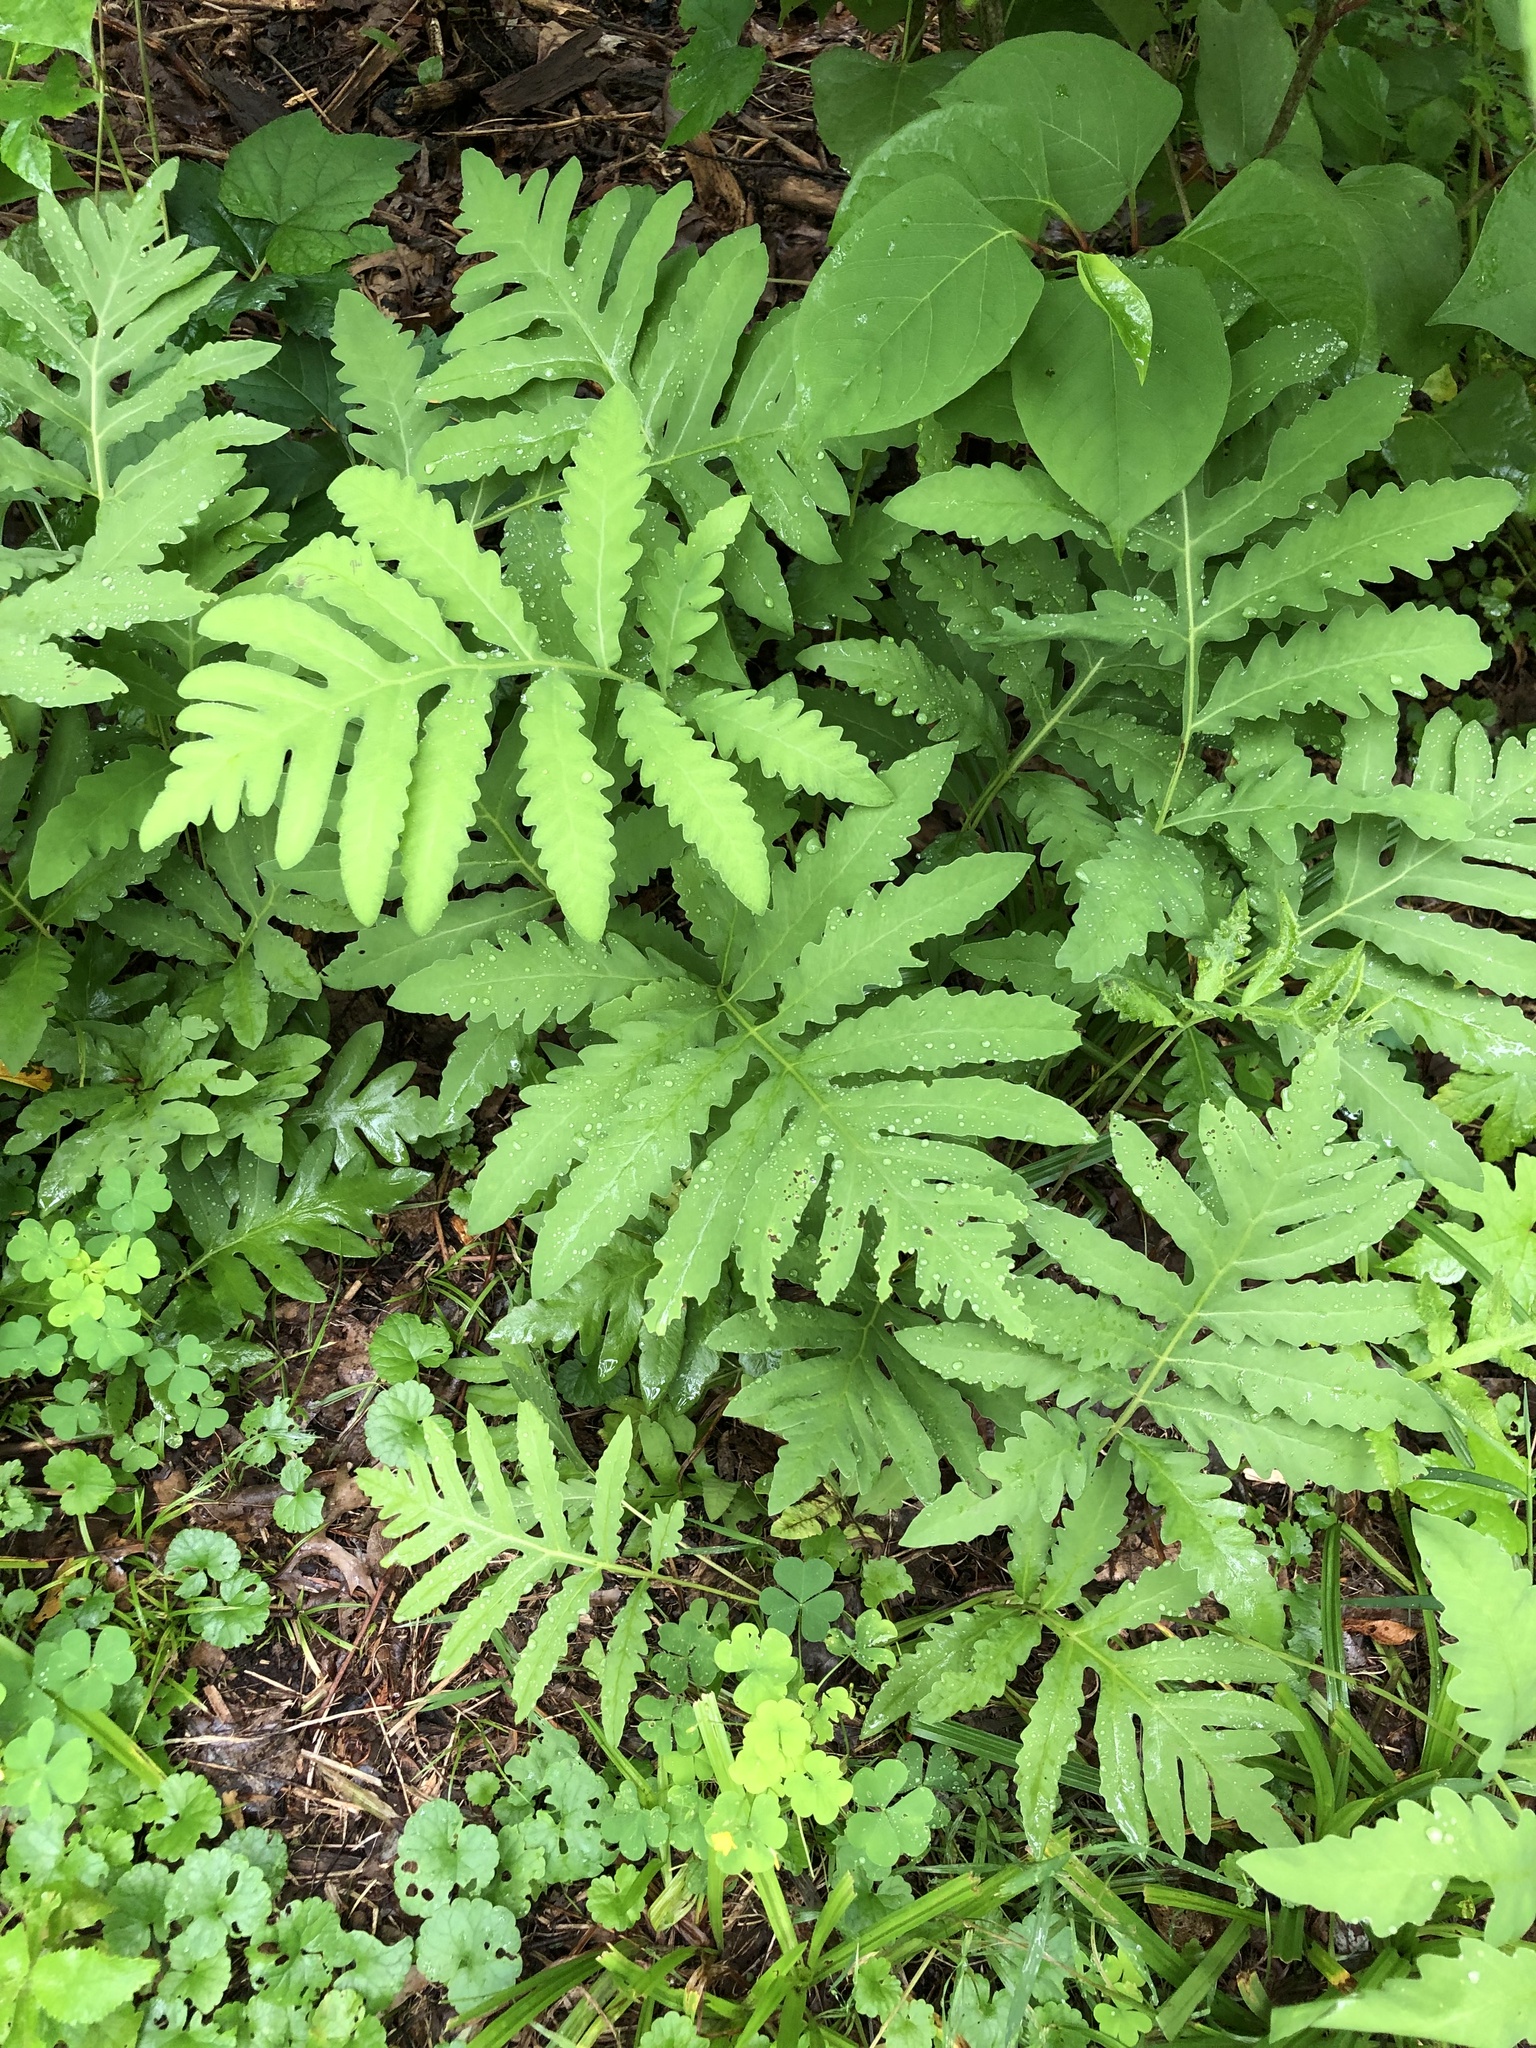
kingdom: Plantae
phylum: Tracheophyta
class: Polypodiopsida
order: Polypodiales
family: Onocleaceae
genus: Onoclea
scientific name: Onoclea sensibilis
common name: Sensitive fern
